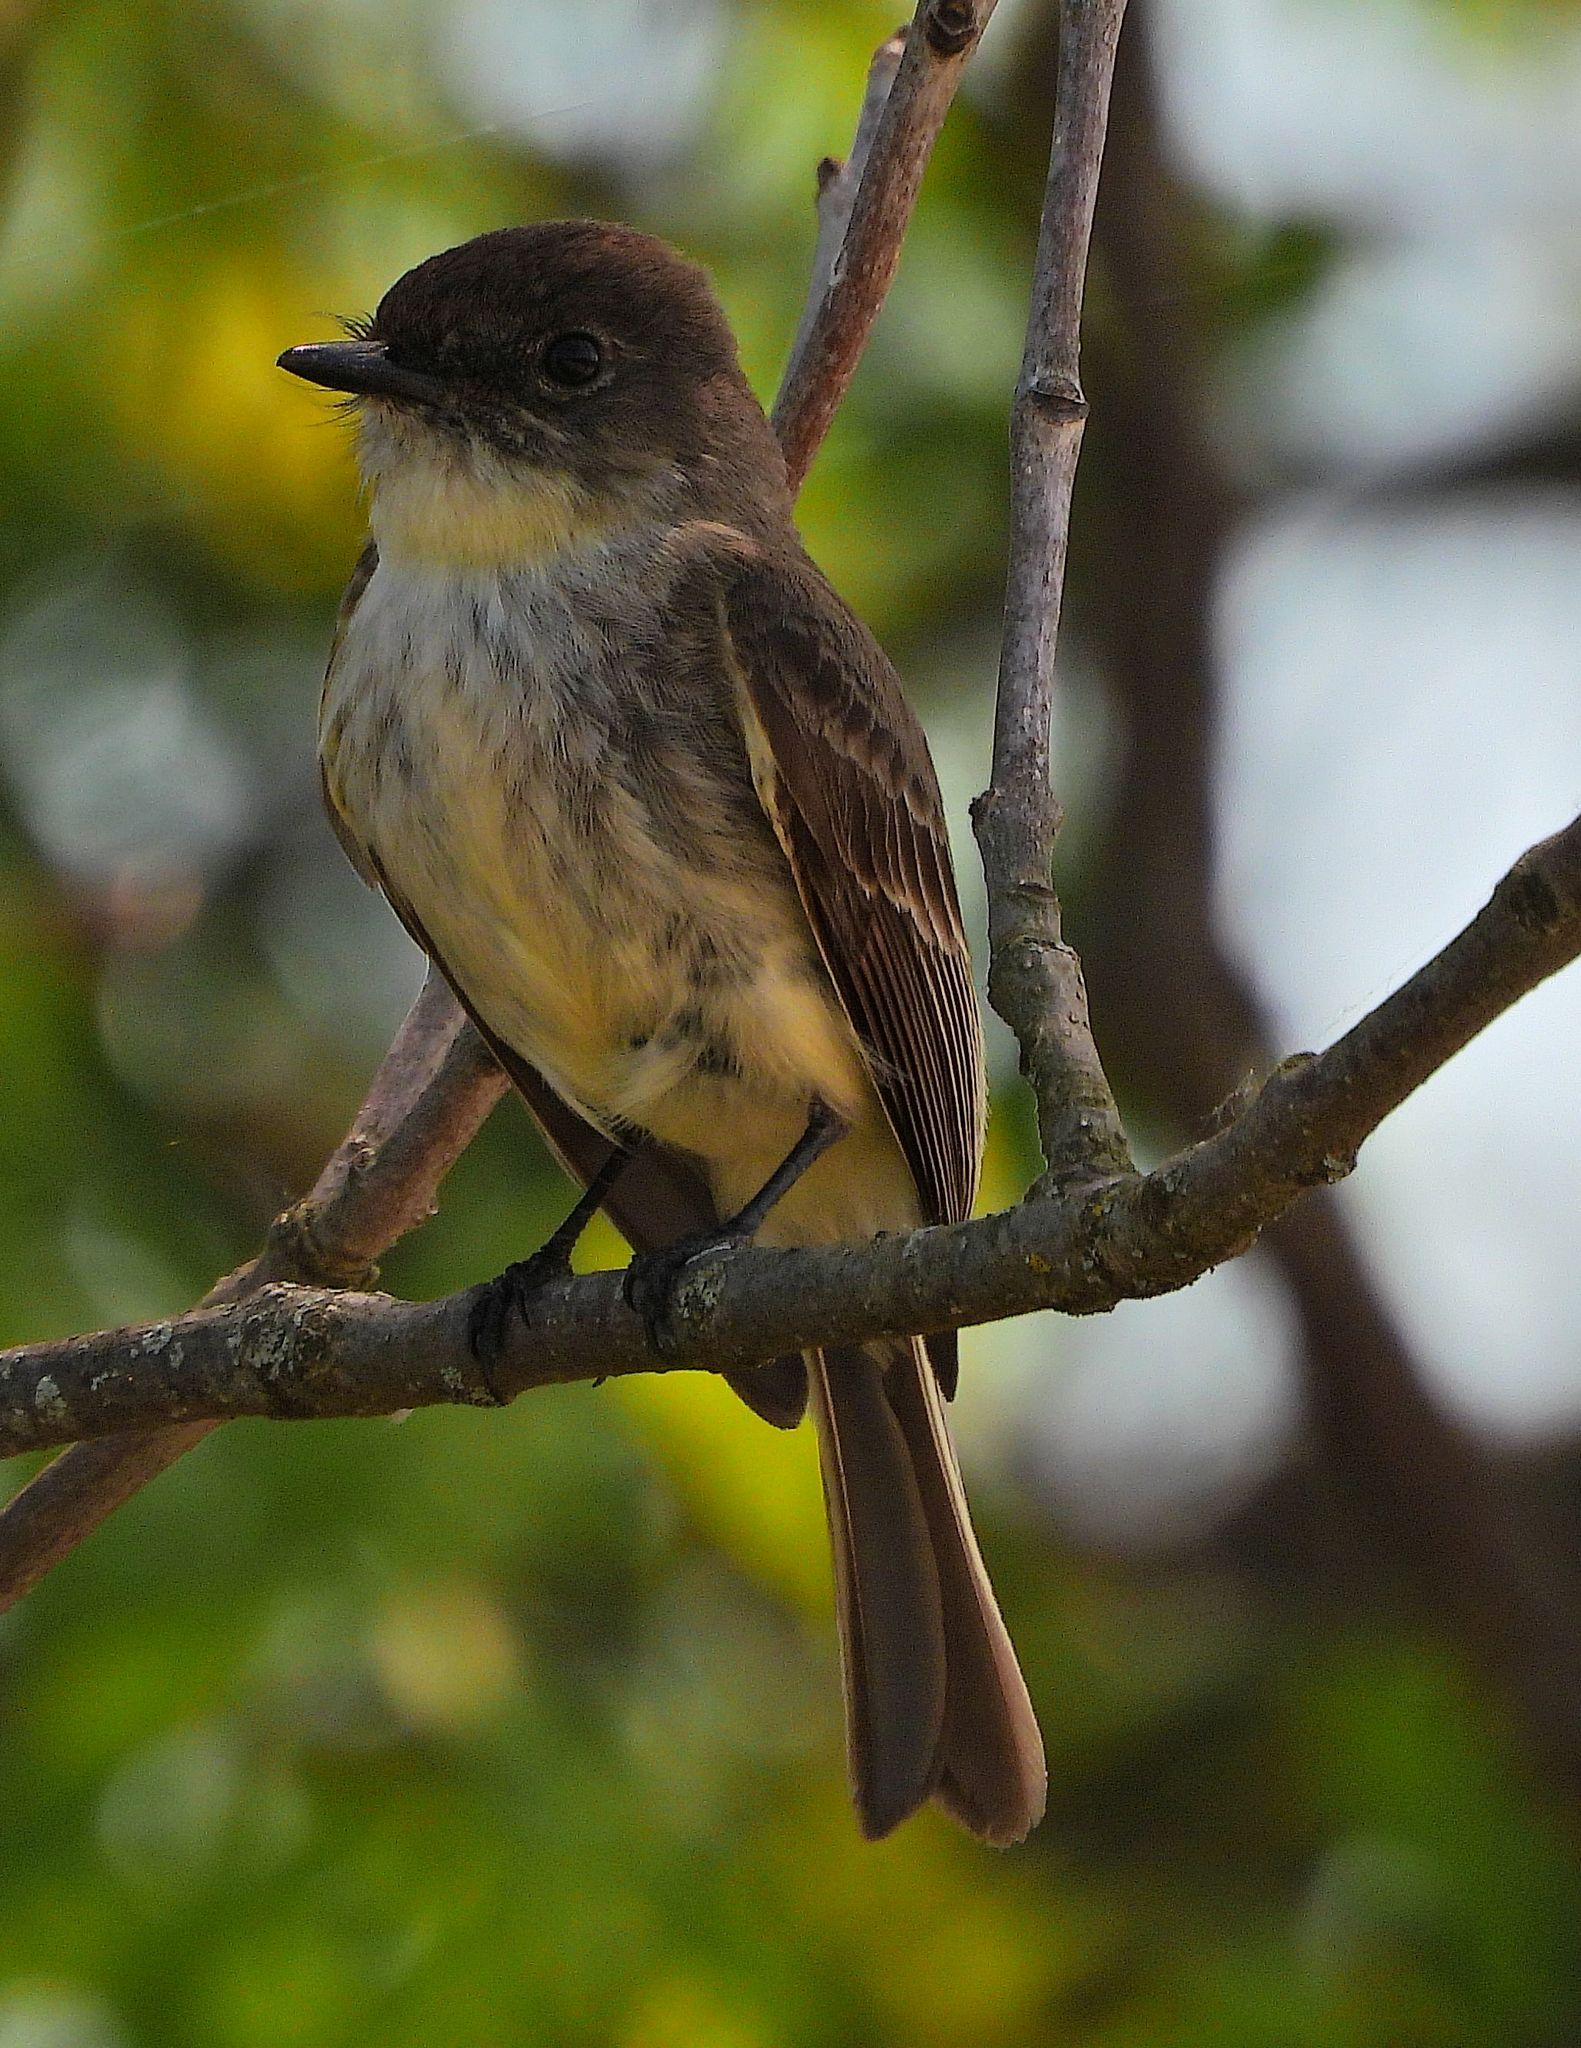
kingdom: Animalia
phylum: Chordata
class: Aves
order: Passeriformes
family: Tyrannidae
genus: Sayornis
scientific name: Sayornis phoebe
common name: Eastern phoebe
